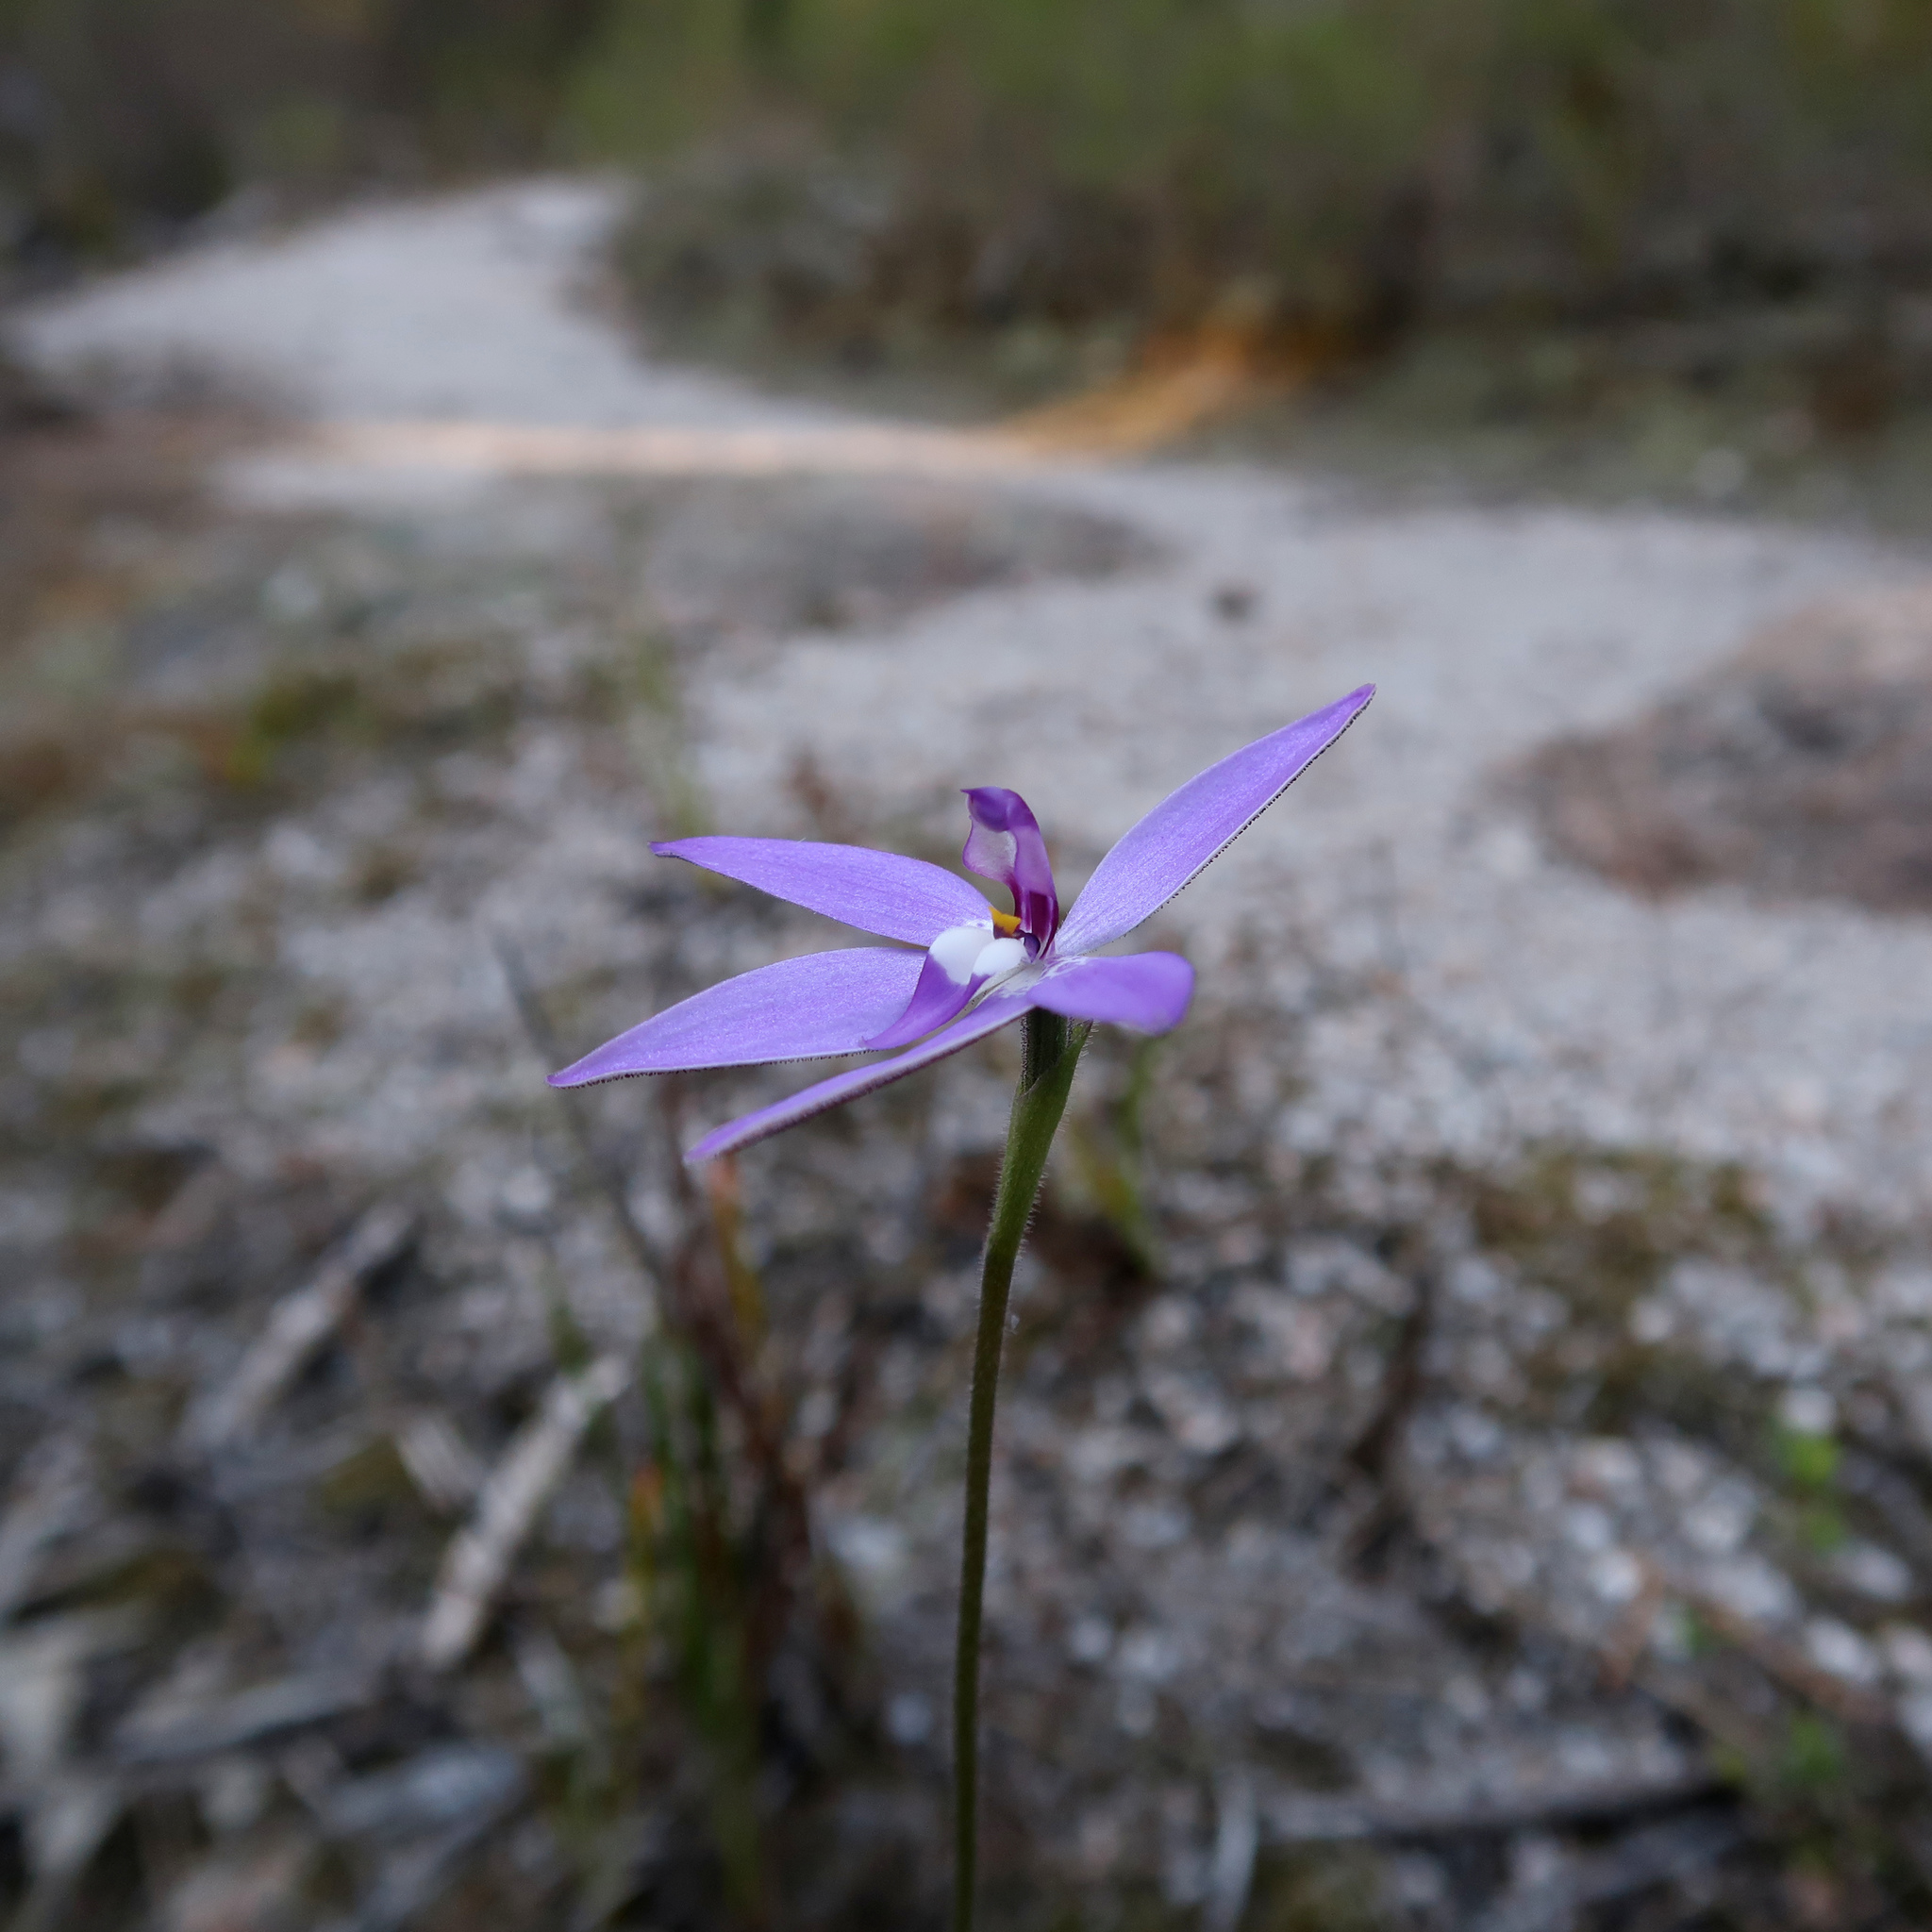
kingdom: Plantae
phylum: Tracheophyta
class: Liliopsida
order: Asparagales
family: Orchidaceae
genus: Caladenia
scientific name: Caladenia major
